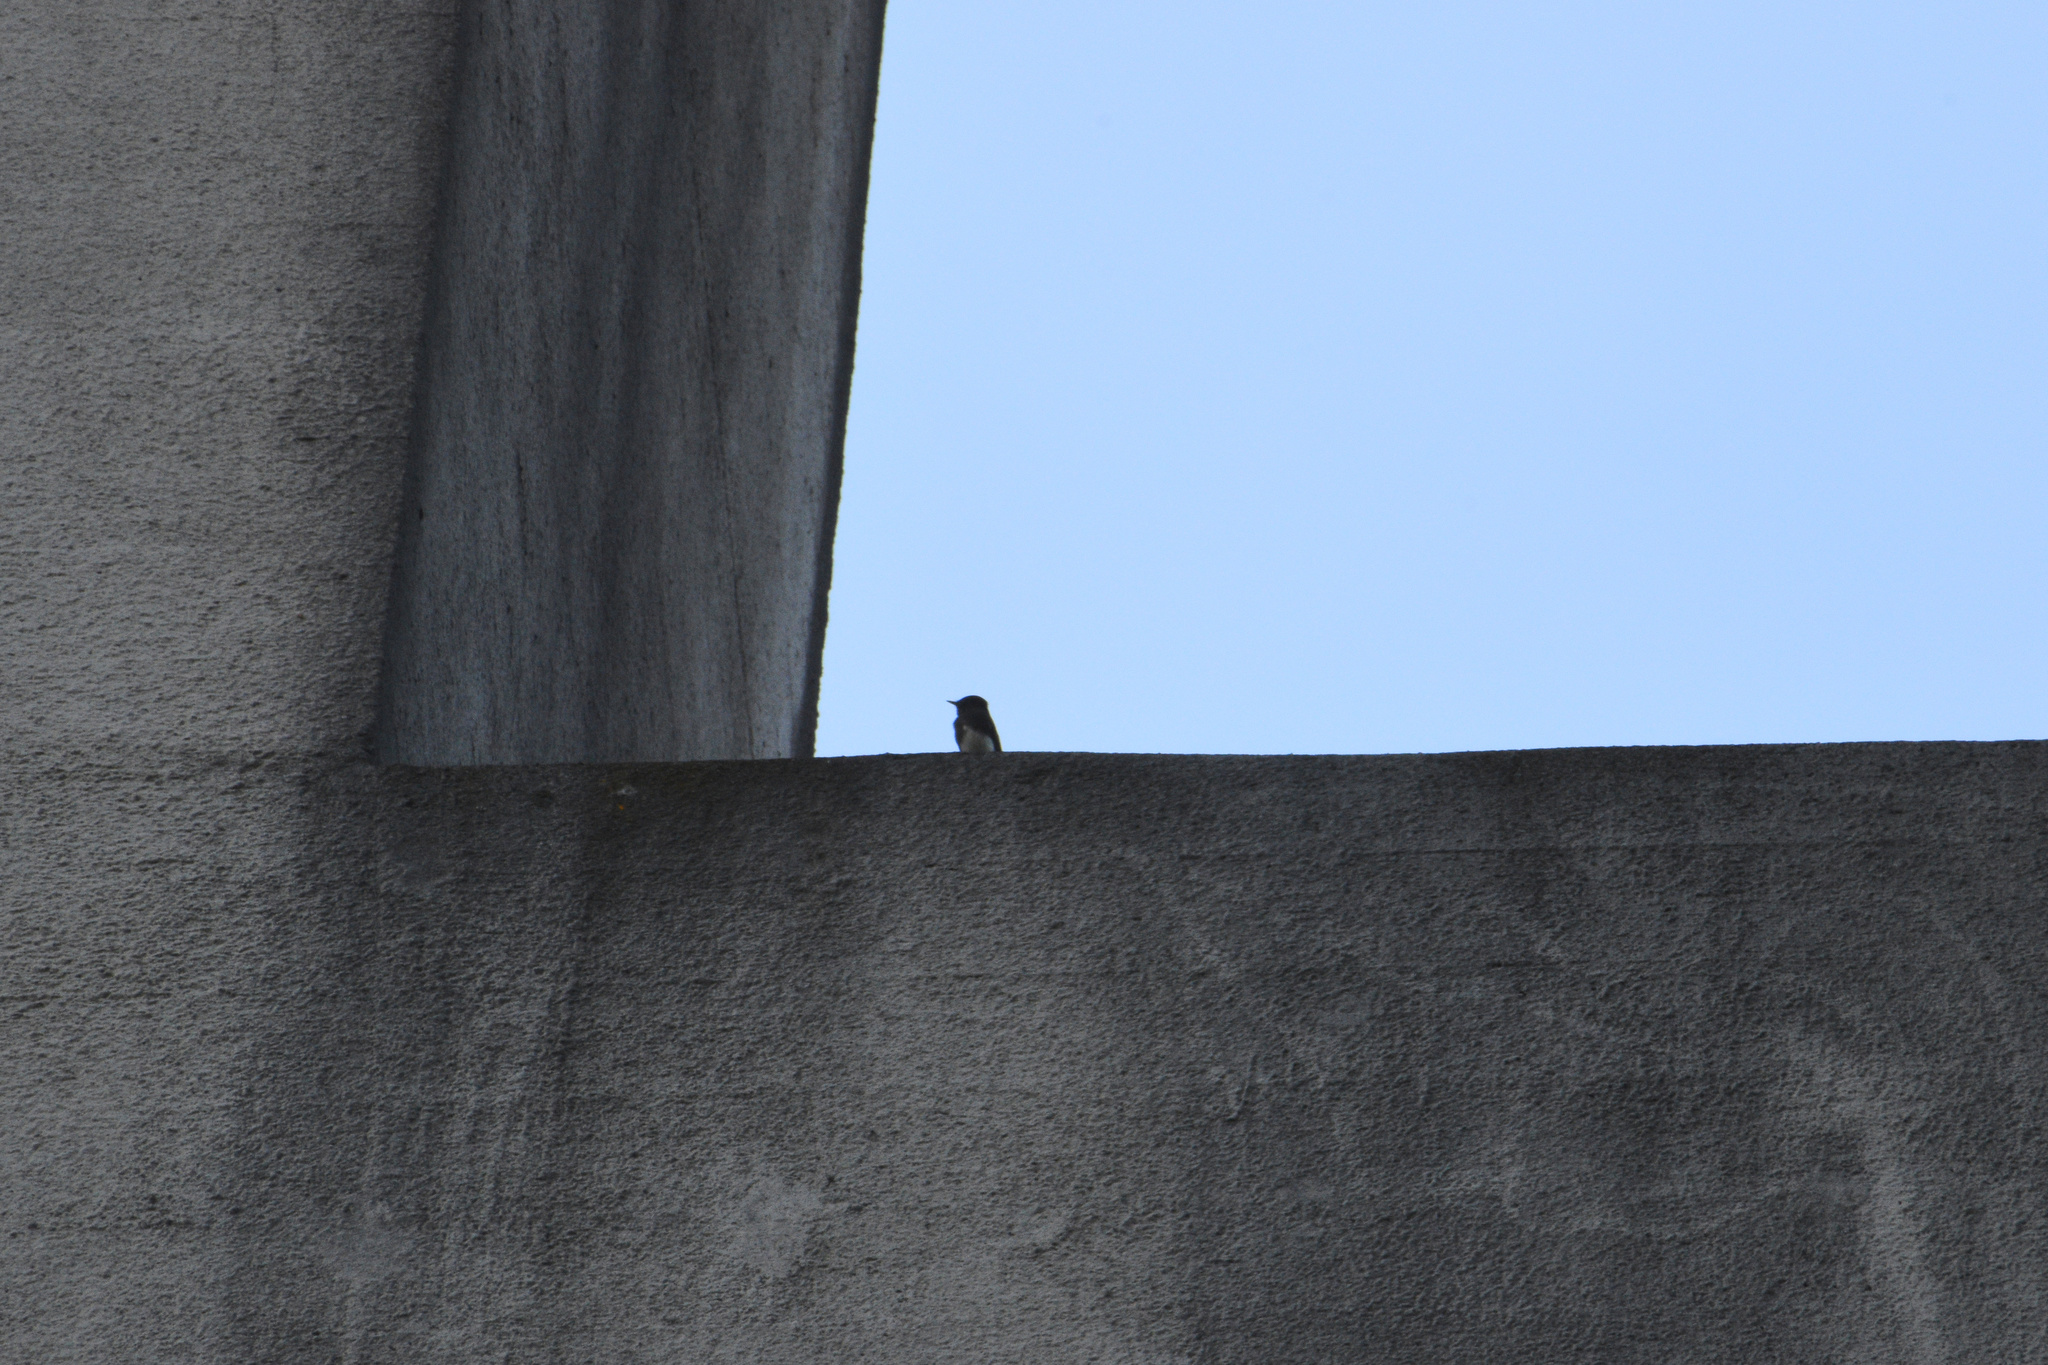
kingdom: Animalia
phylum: Chordata
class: Aves
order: Passeriformes
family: Tyrannidae
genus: Sayornis
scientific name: Sayornis nigricans
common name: Black phoebe
